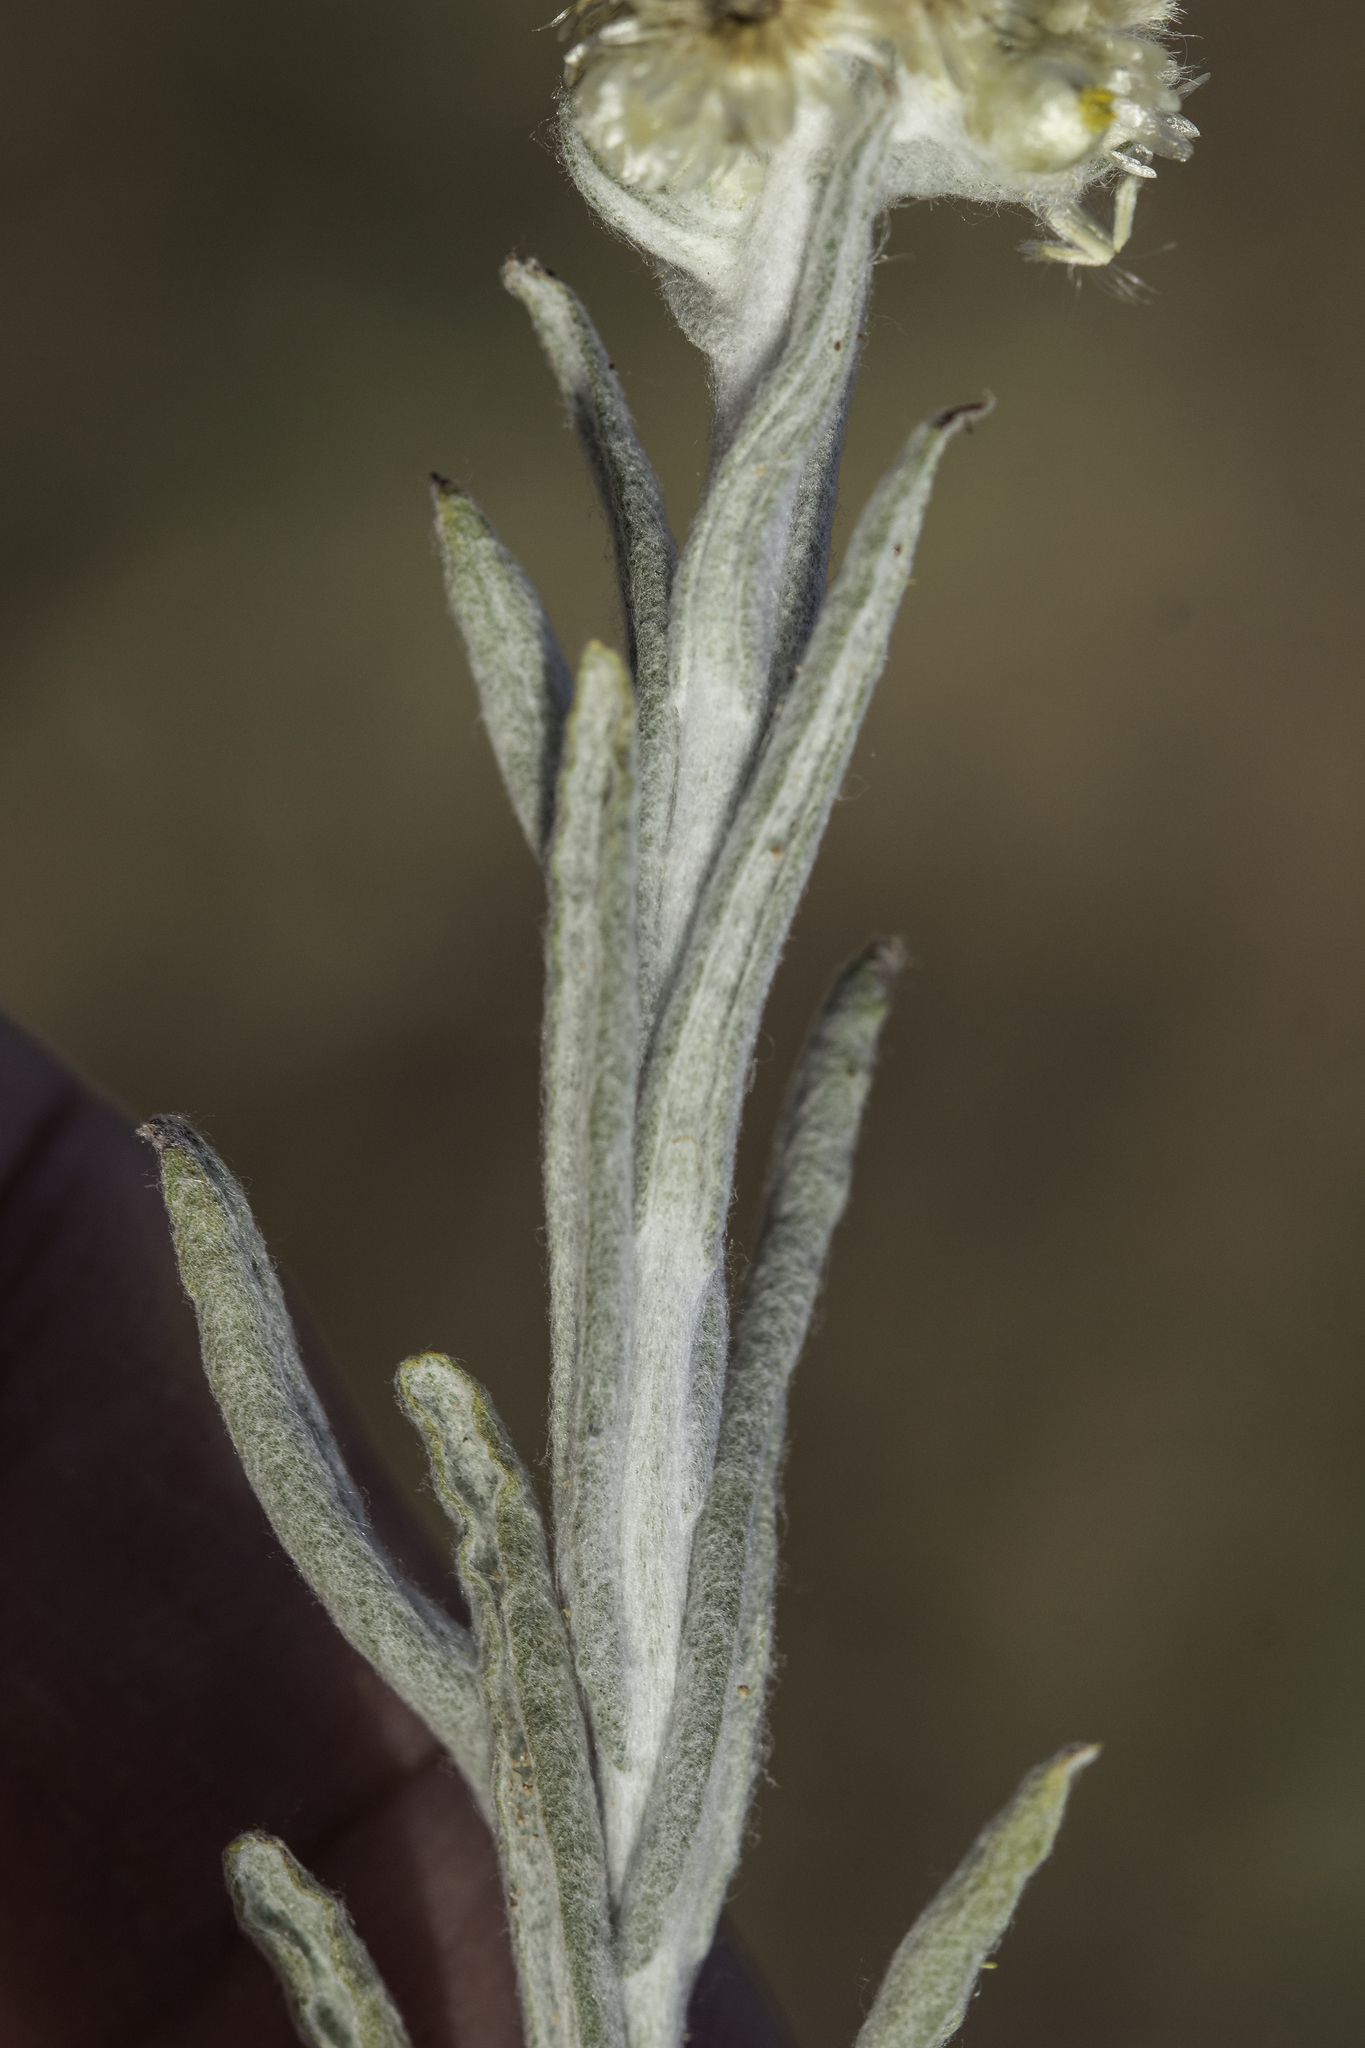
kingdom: Plantae
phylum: Tracheophyta
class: Magnoliopsida
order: Asterales
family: Asteraceae
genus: Pseudognaphalium
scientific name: Pseudognaphalium stramineum
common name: Cotton-batting-plant
